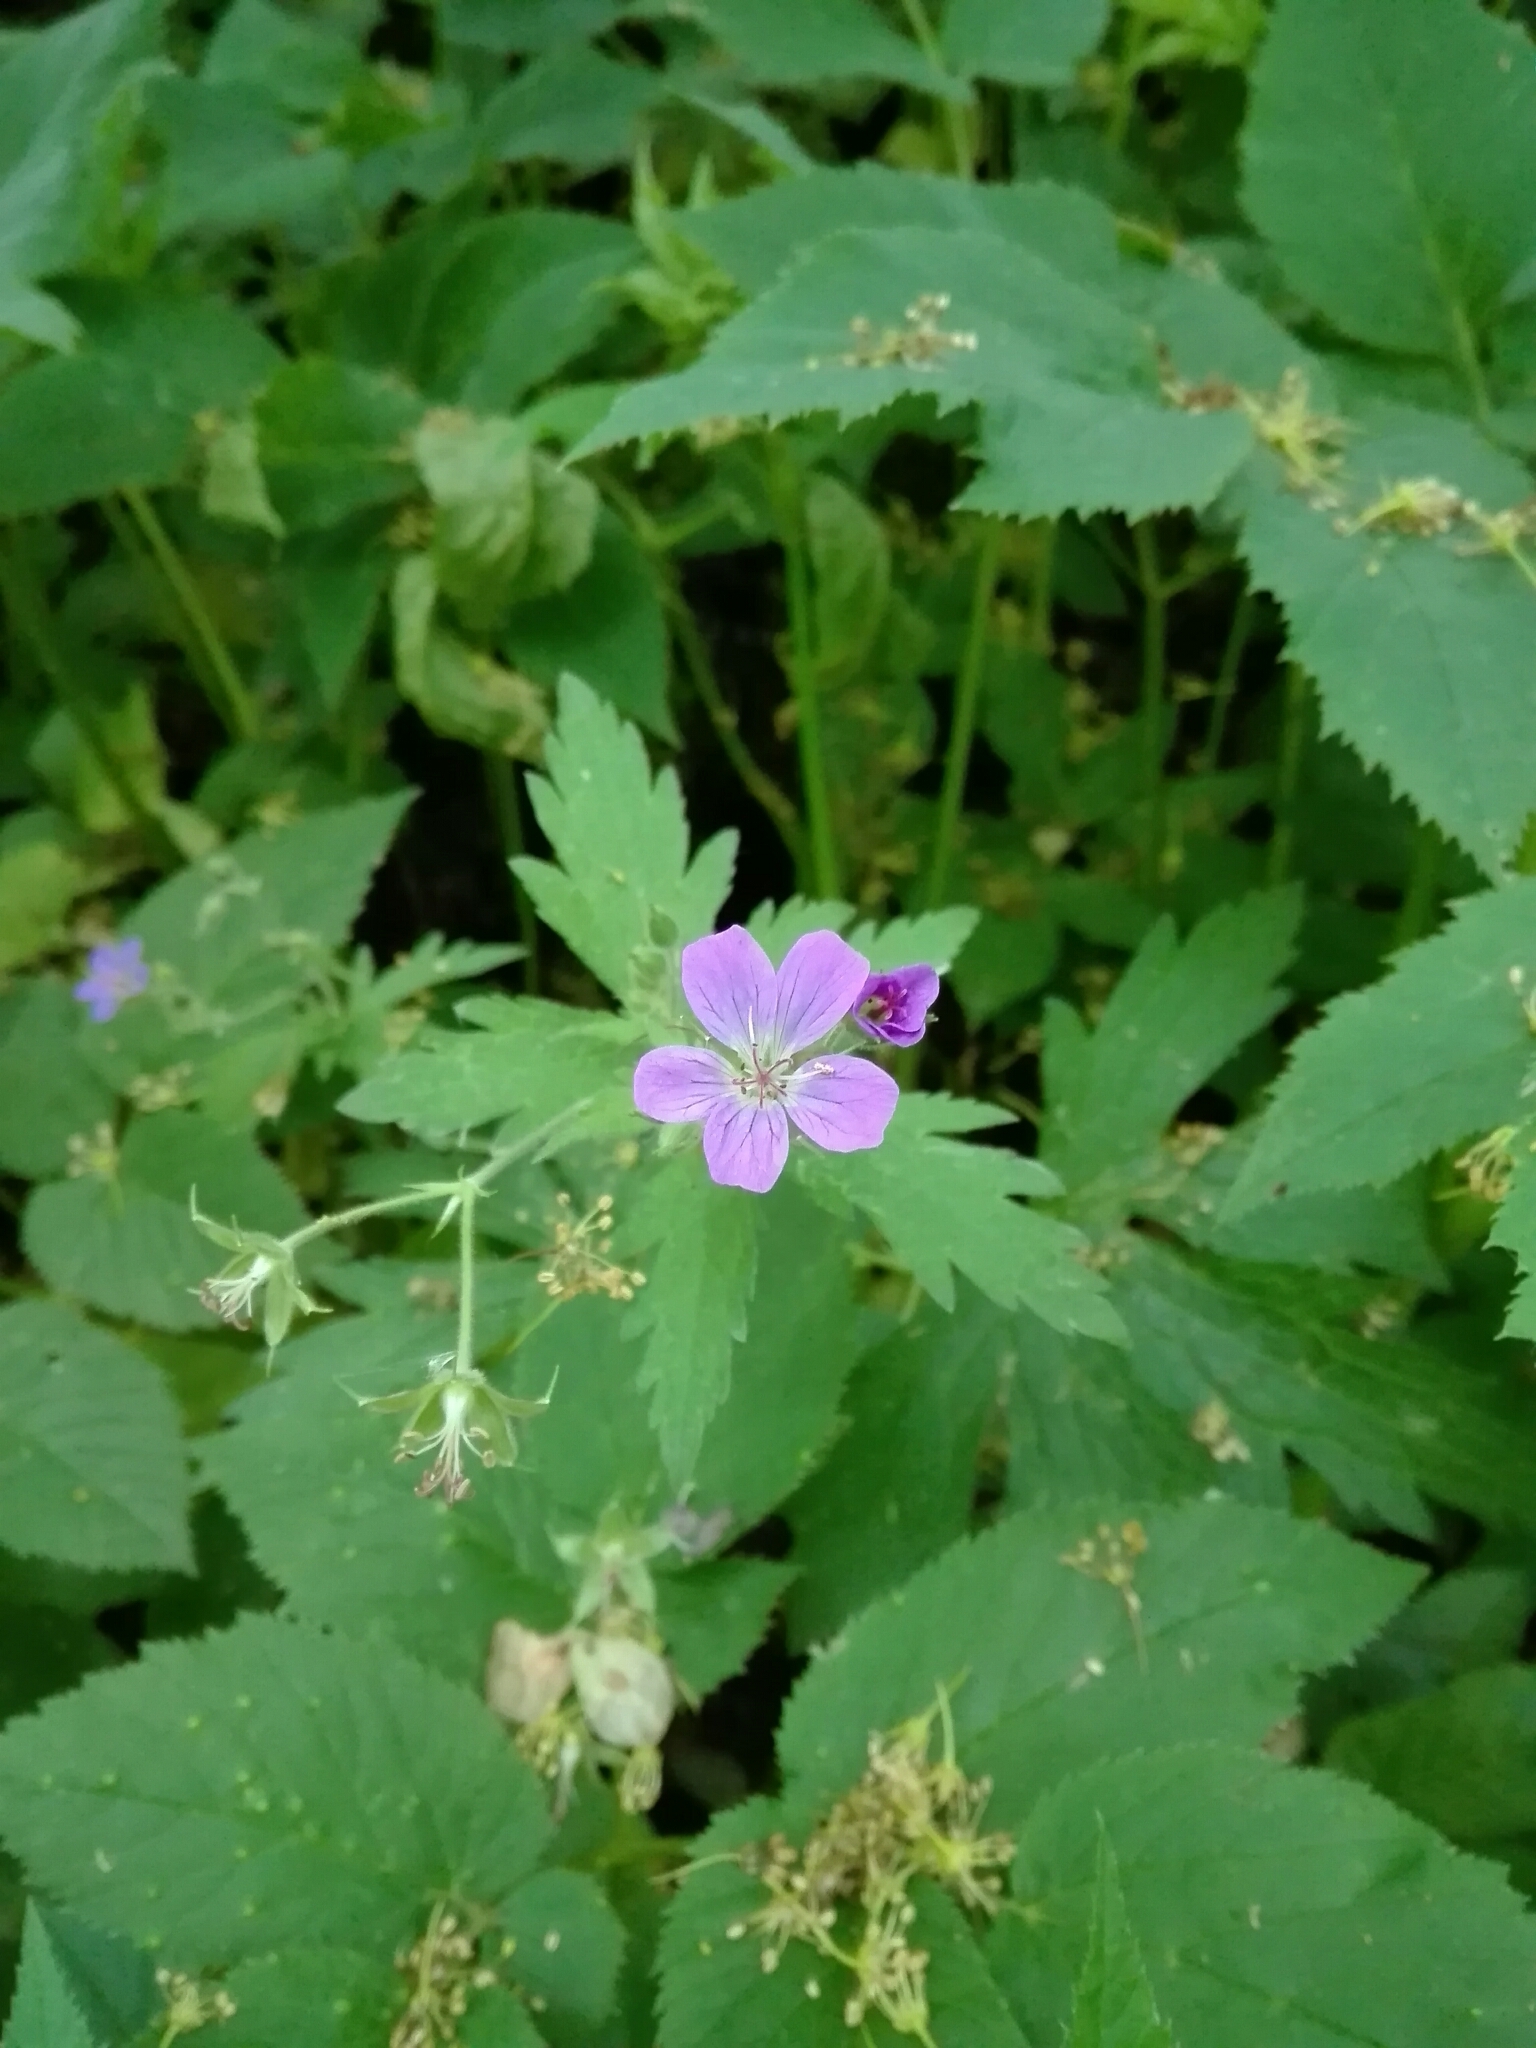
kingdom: Plantae
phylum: Tracheophyta
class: Magnoliopsida
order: Geraniales
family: Geraniaceae
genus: Geranium
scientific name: Geranium sylvaticum
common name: Wood crane's-bill
